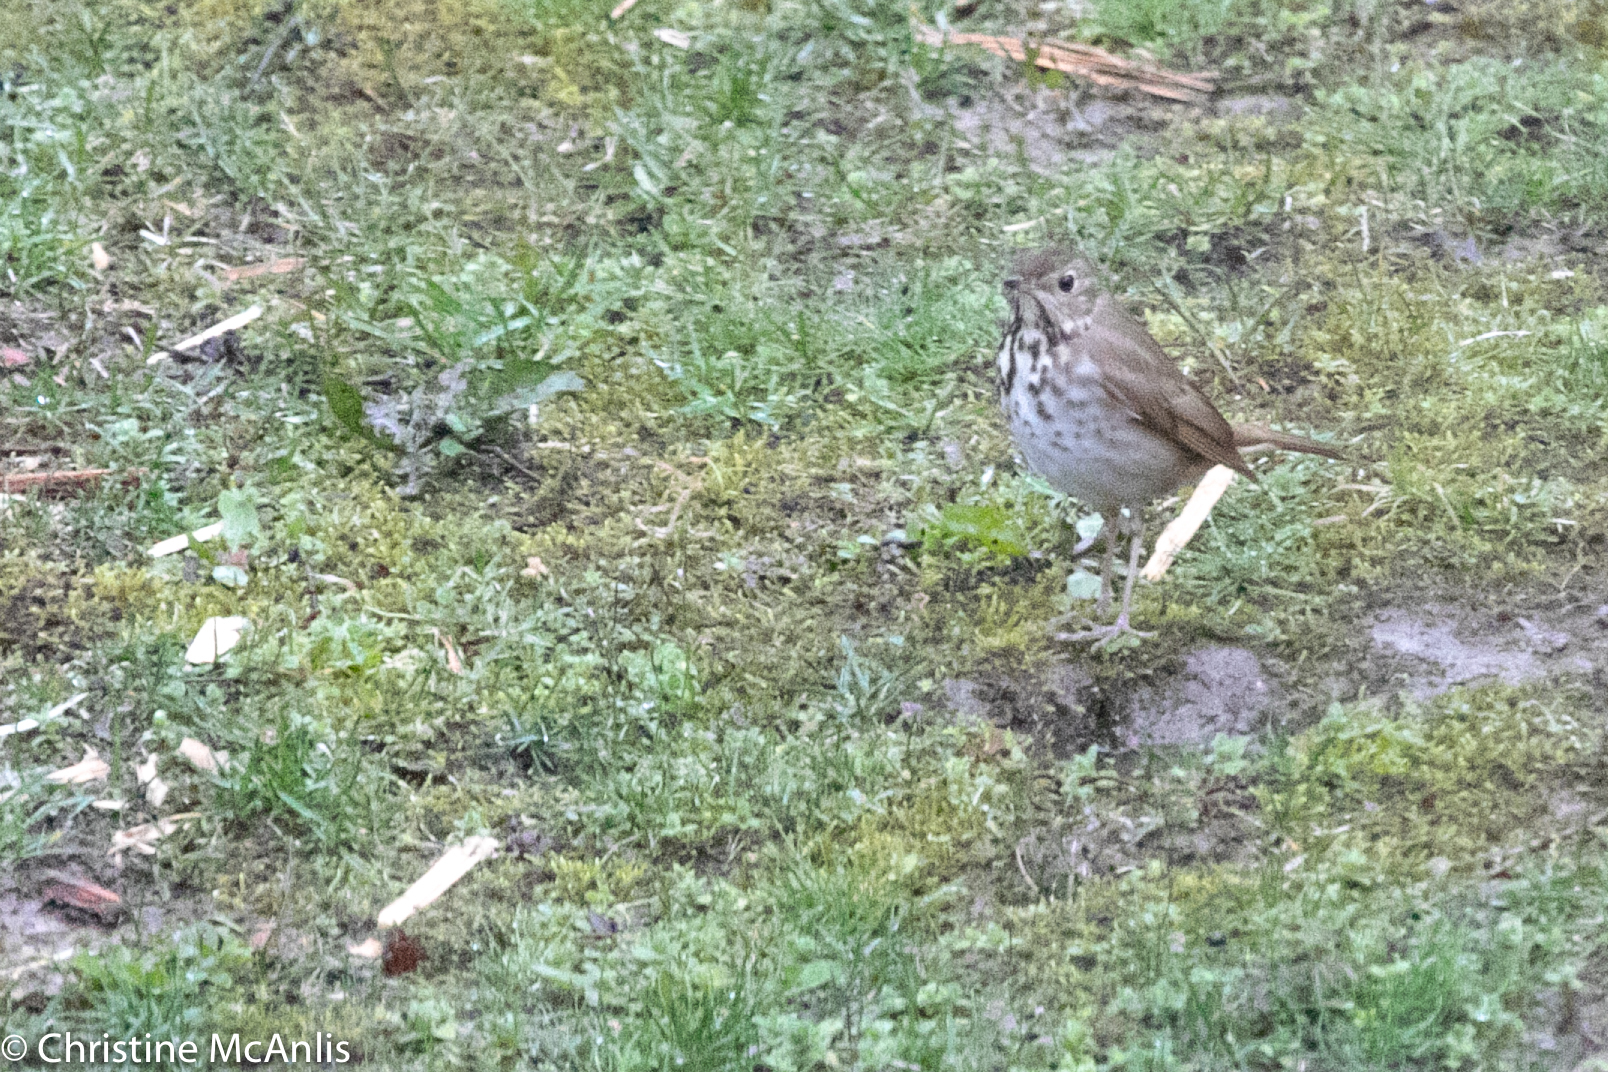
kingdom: Animalia
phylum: Chordata
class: Aves
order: Passeriformes
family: Turdidae
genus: Catharus
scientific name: Catharus guttatus
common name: Hermit thrush
